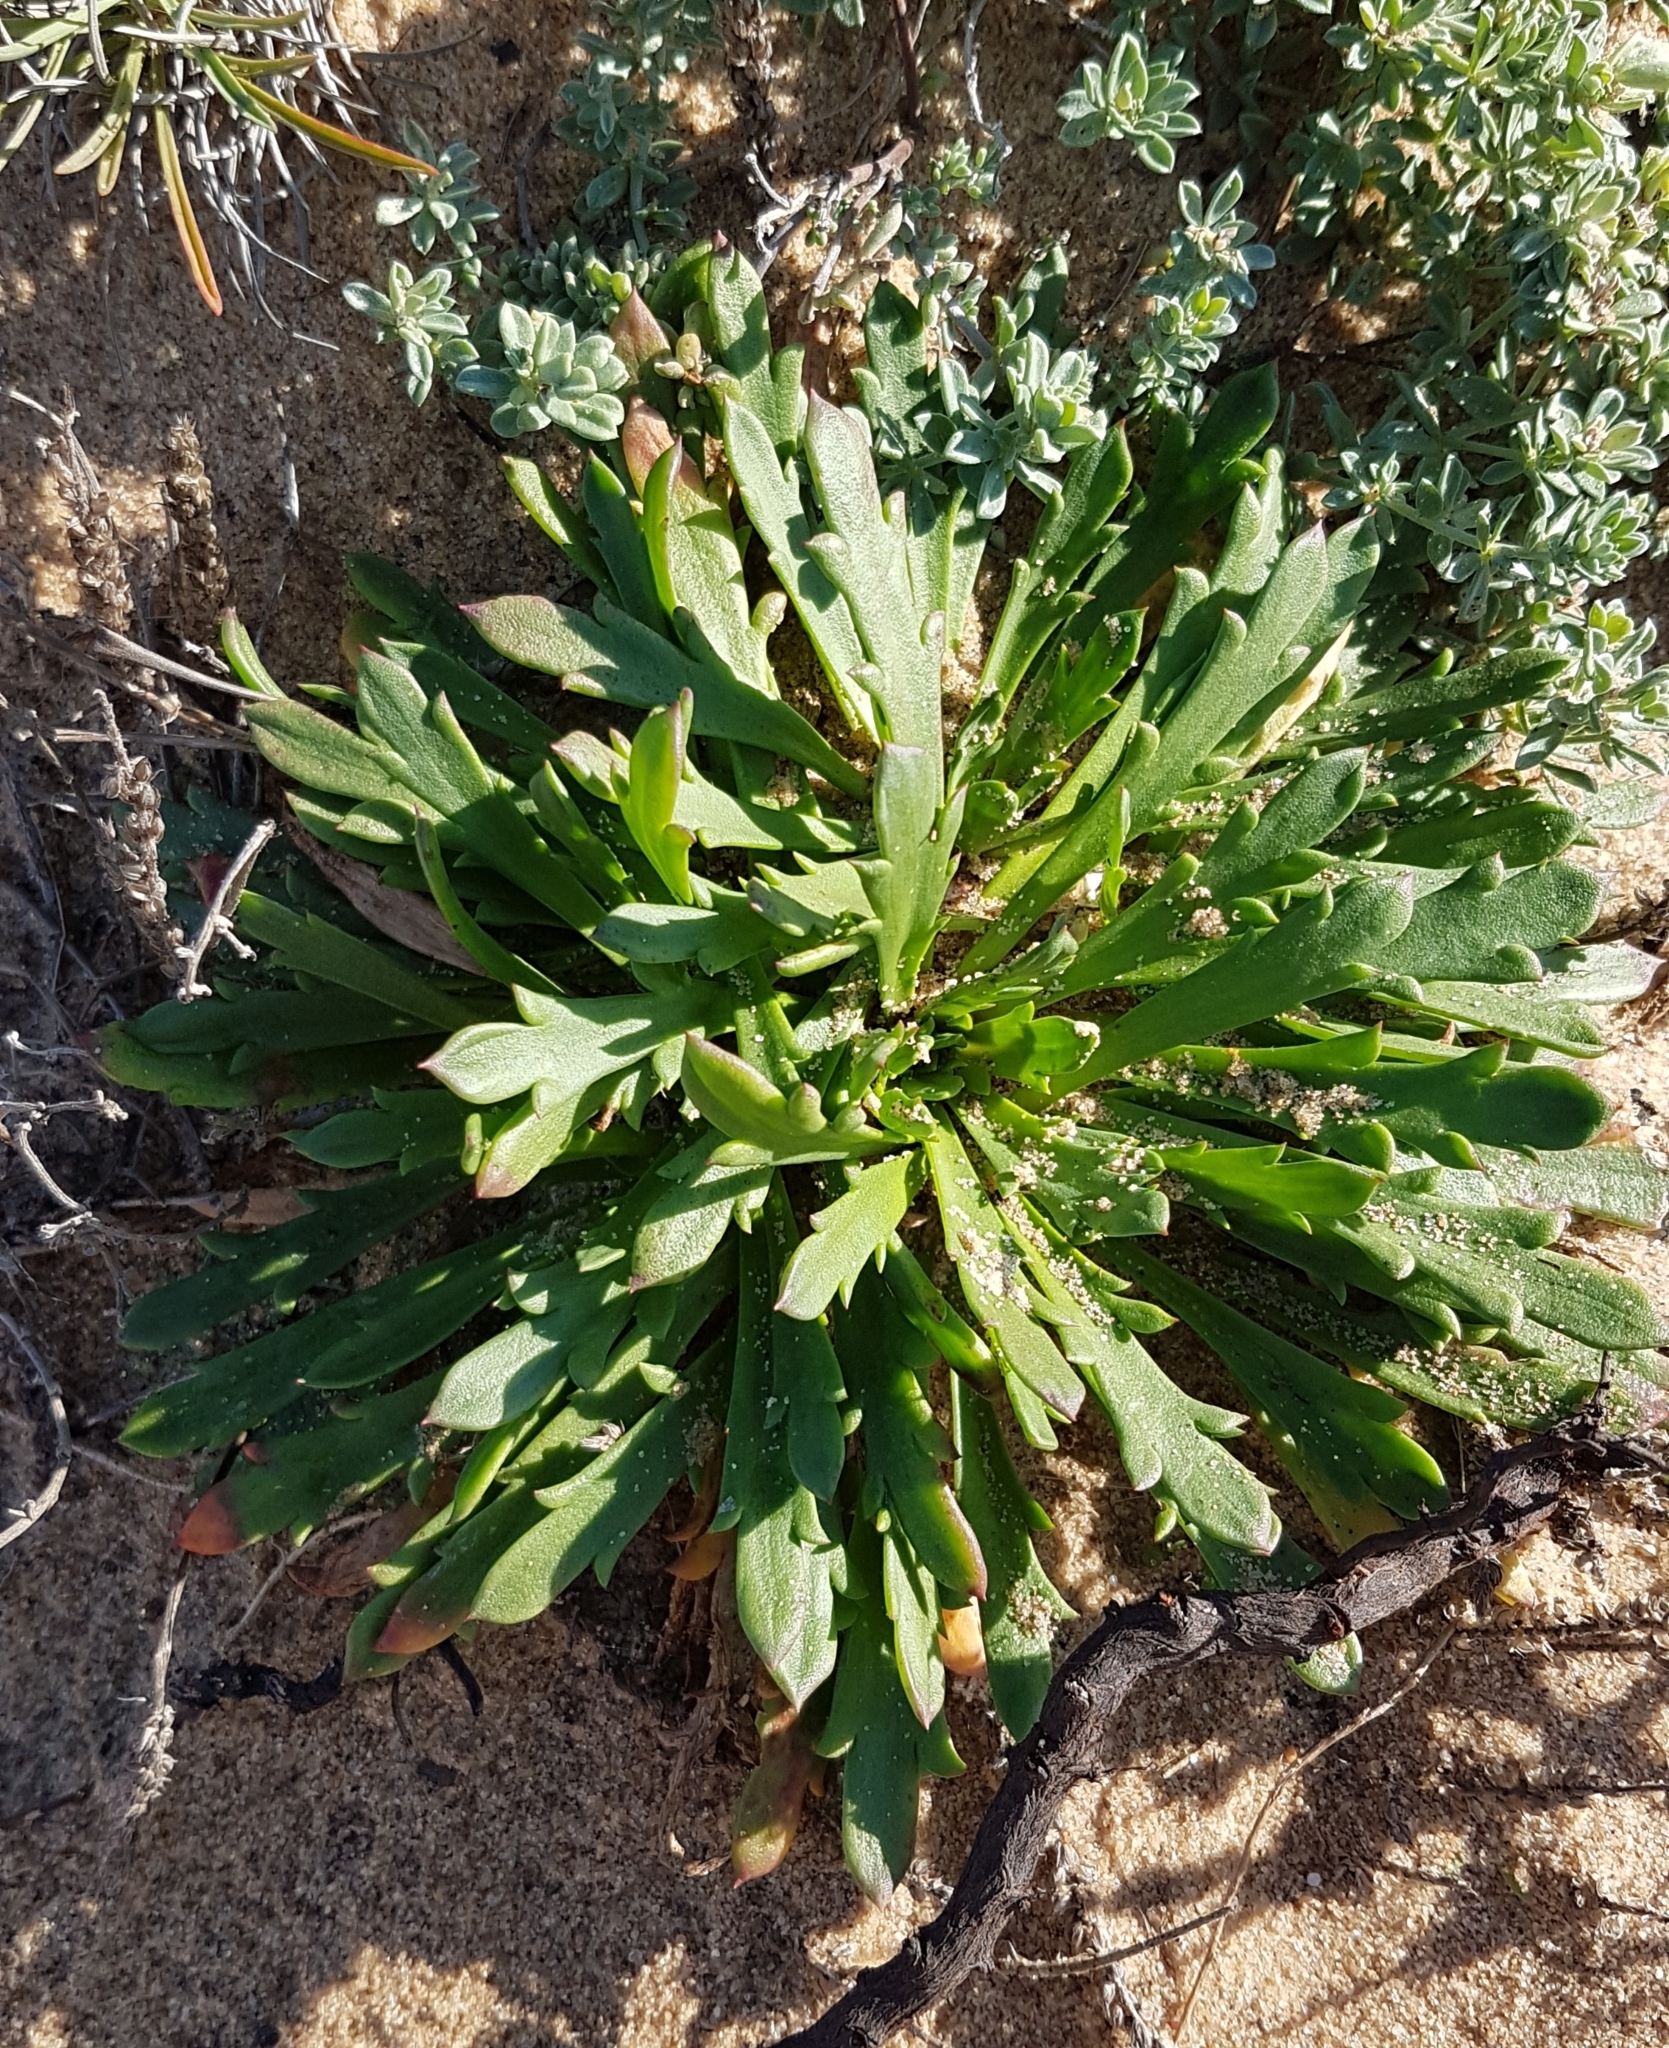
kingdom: Plantae
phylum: Tracheophyta
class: Magnoliopsida
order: Lamiales
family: Plantaginaceae
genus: Plantago
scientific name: Plantago coronopus
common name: Buck's-horn plantain
